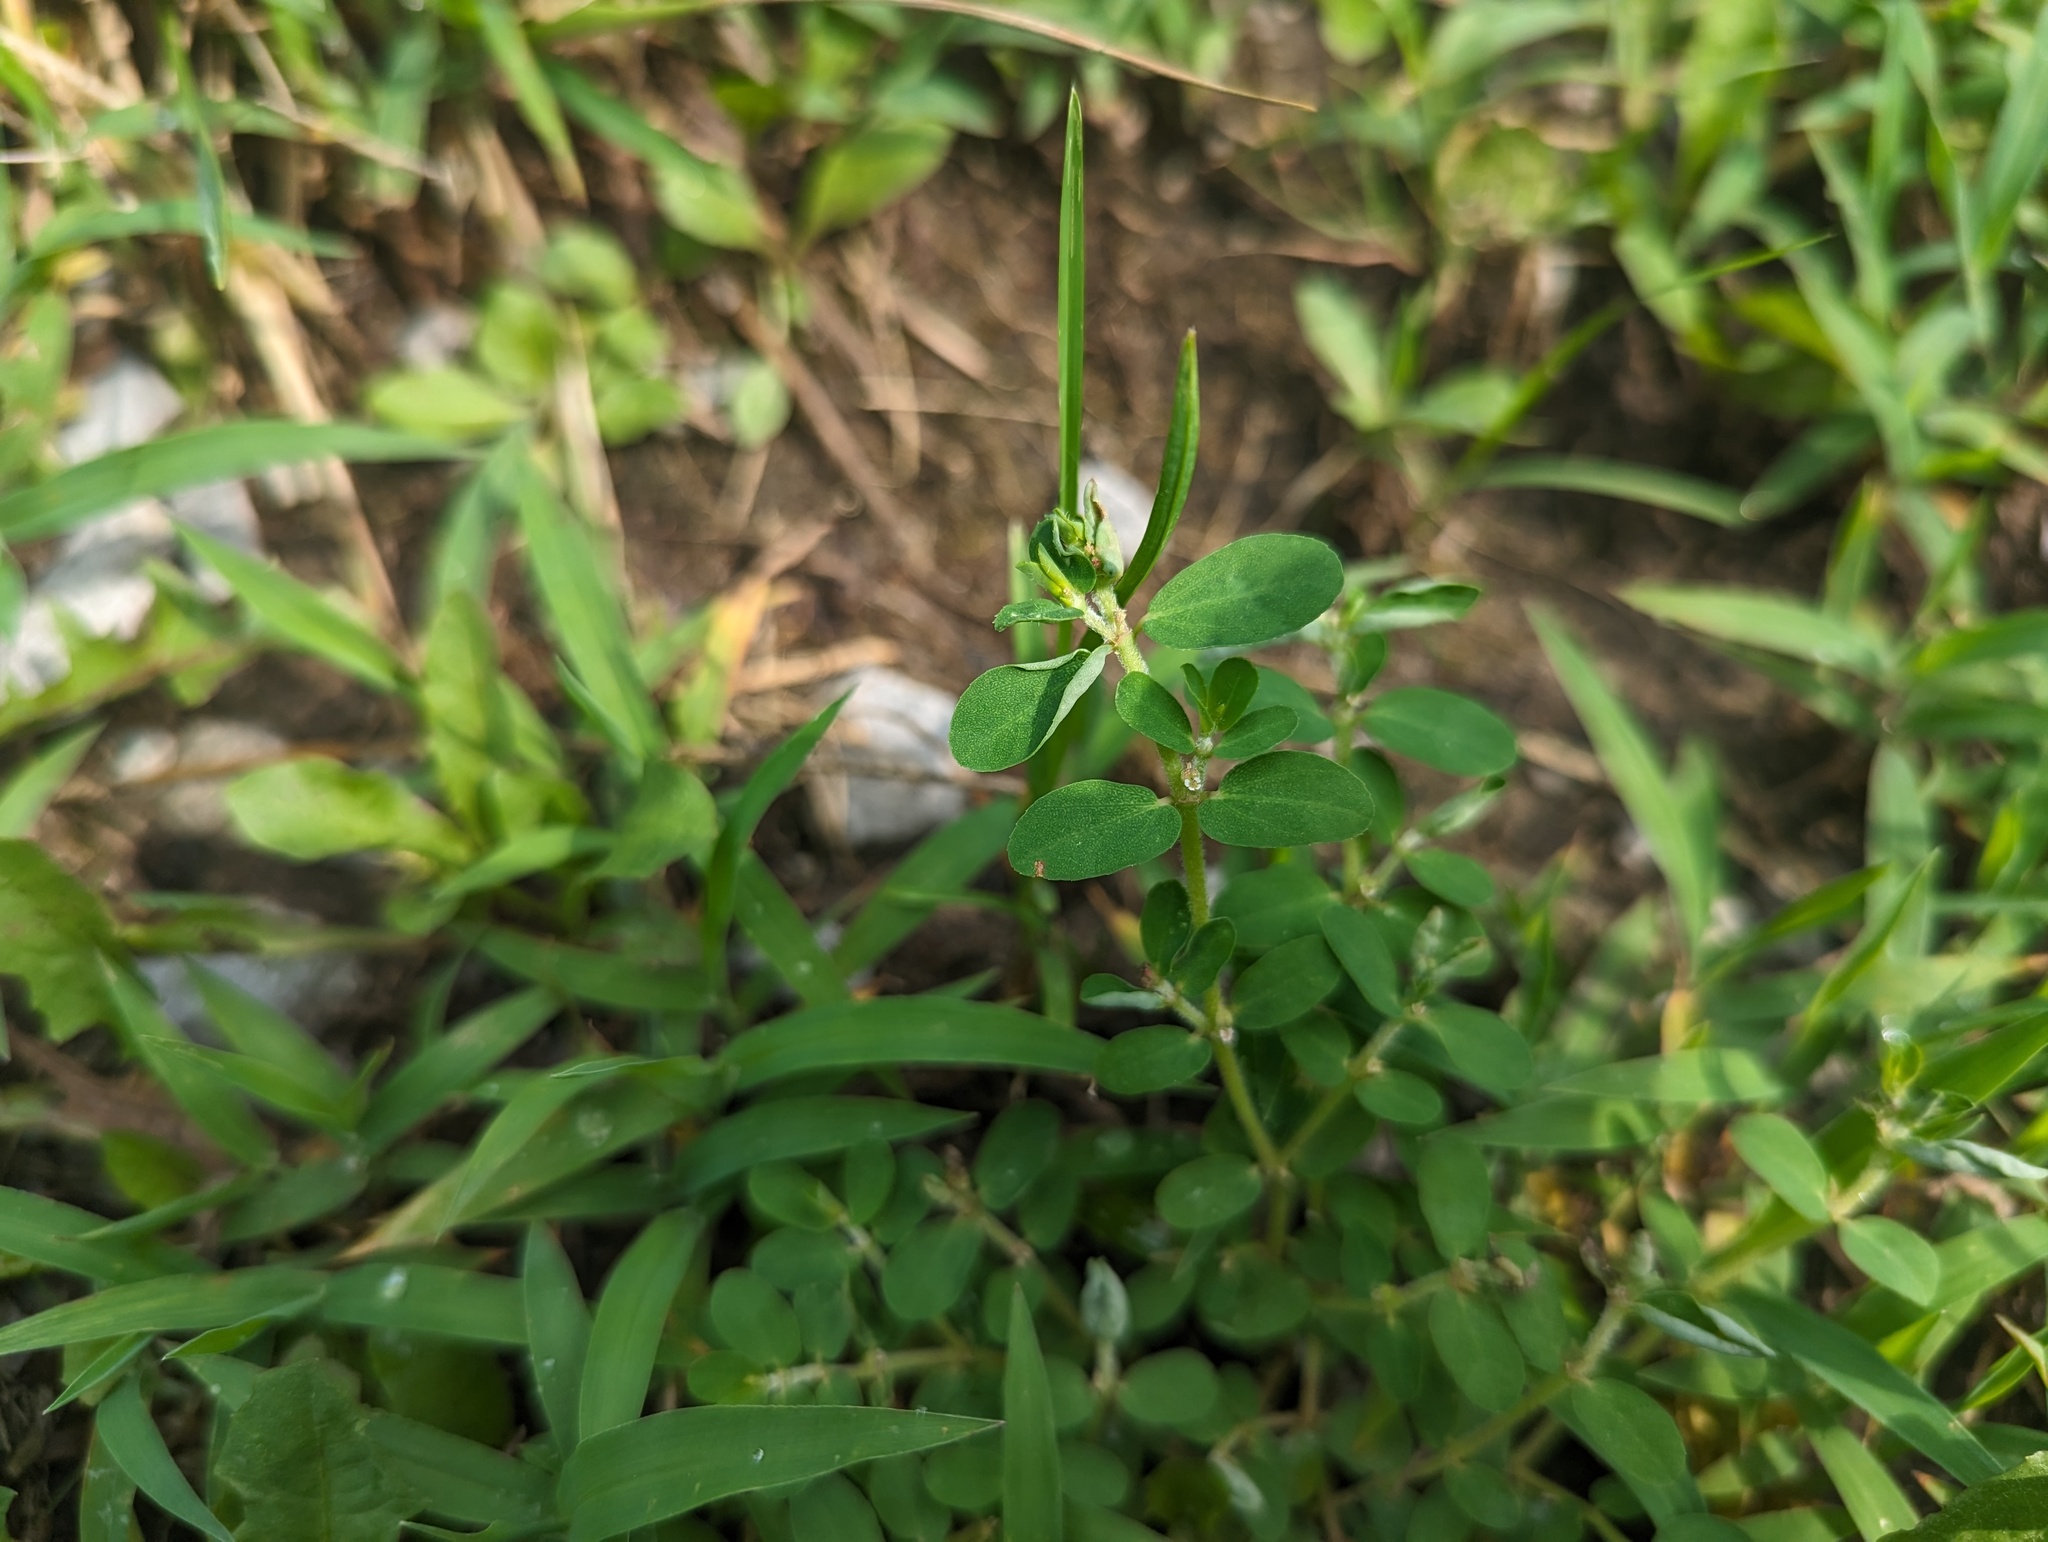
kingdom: Plantae
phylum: Tracheophyta
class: Magnoliopsida
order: Malpighiales
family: Euphorbiaceae
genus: Euphorbia
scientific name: Euphorbia humistrata
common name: Hairy spreading spurge
